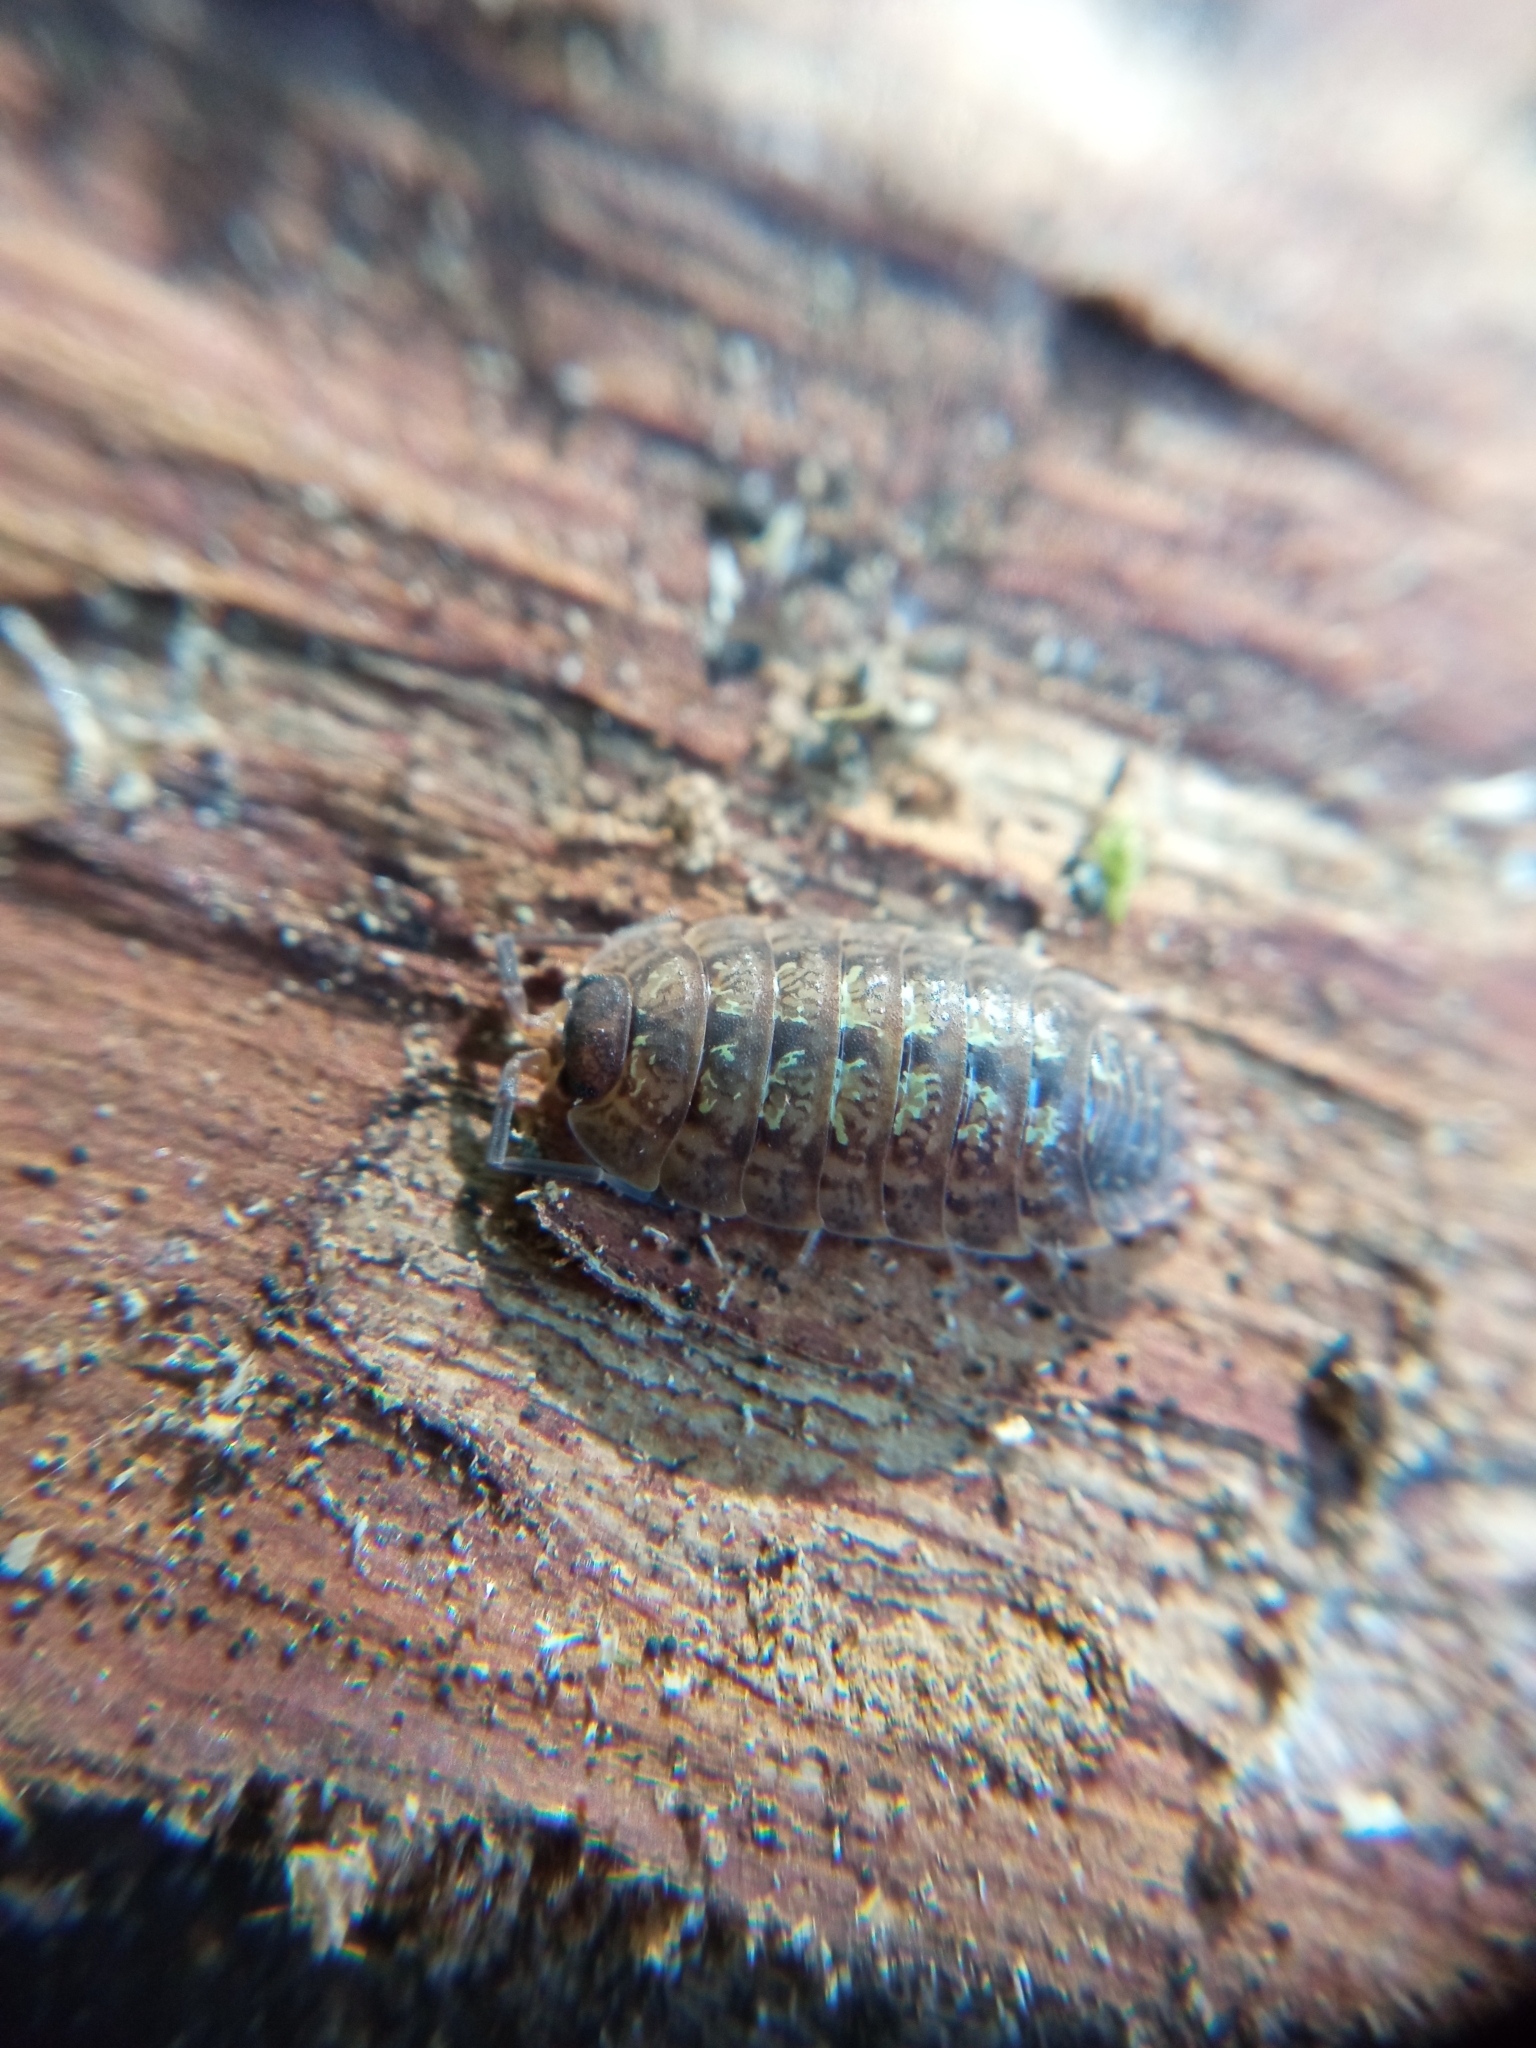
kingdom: Animalia
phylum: Arthropoda
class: Malacostraca
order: Isopoda
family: Porcellionidae
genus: Porcellio
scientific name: Porcellio monticola
